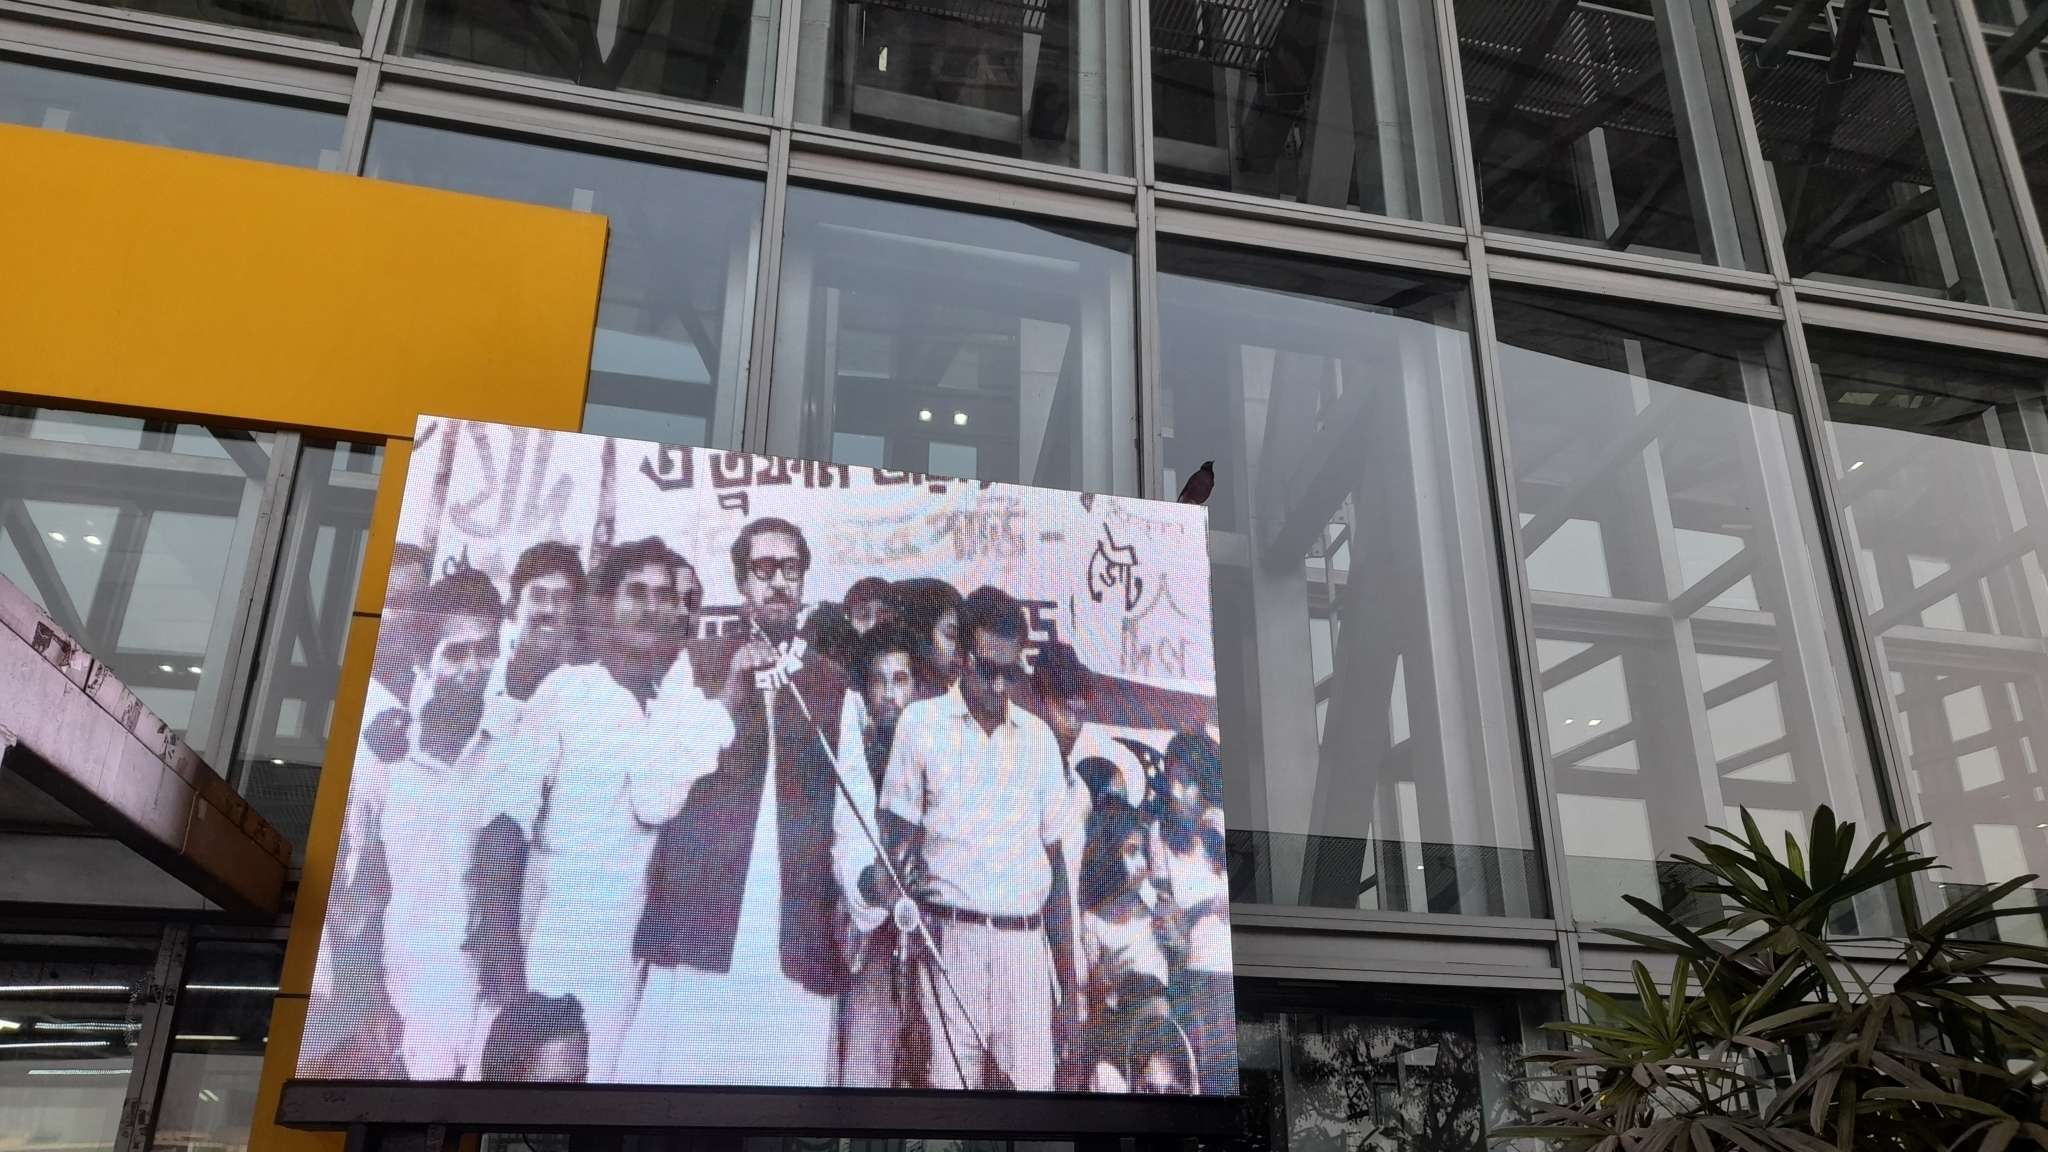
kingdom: Animalia
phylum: Chordata
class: Aves
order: Passeriformes
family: Sturnidae
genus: Acridotheres
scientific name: Acridotheres tristis
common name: Common myna
